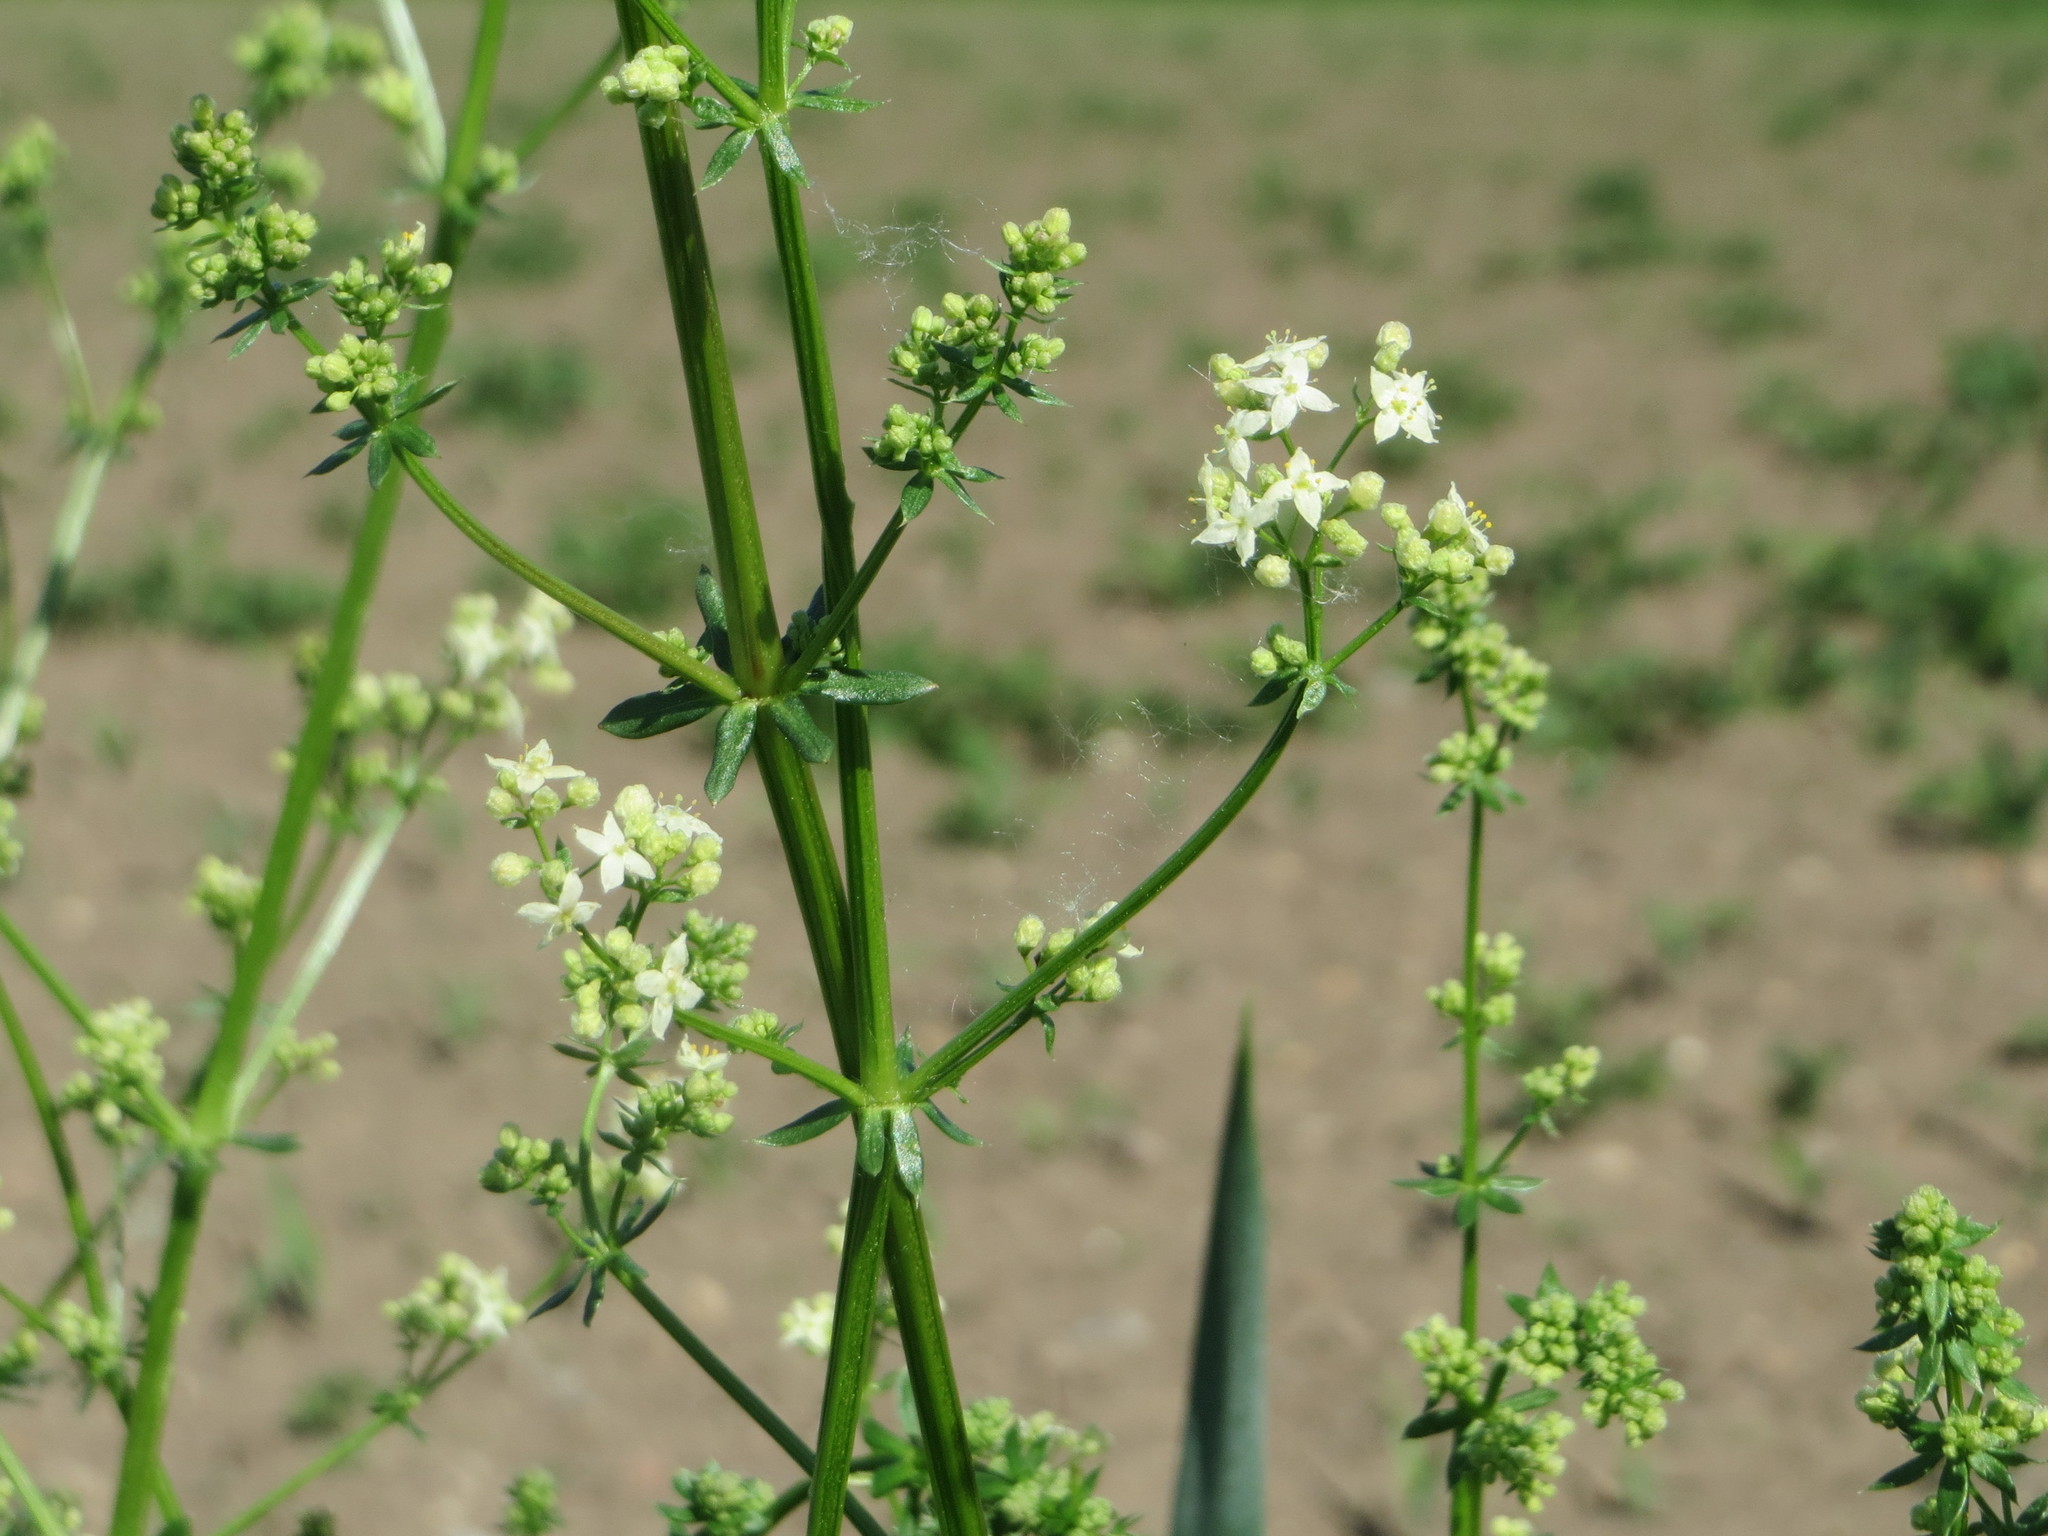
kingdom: Plantae
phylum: Tracheophyta
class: Magnoliopsida
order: Gentianales
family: Rubiaceae
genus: Galium
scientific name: Galium mollugo
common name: Hedge bedstraw
